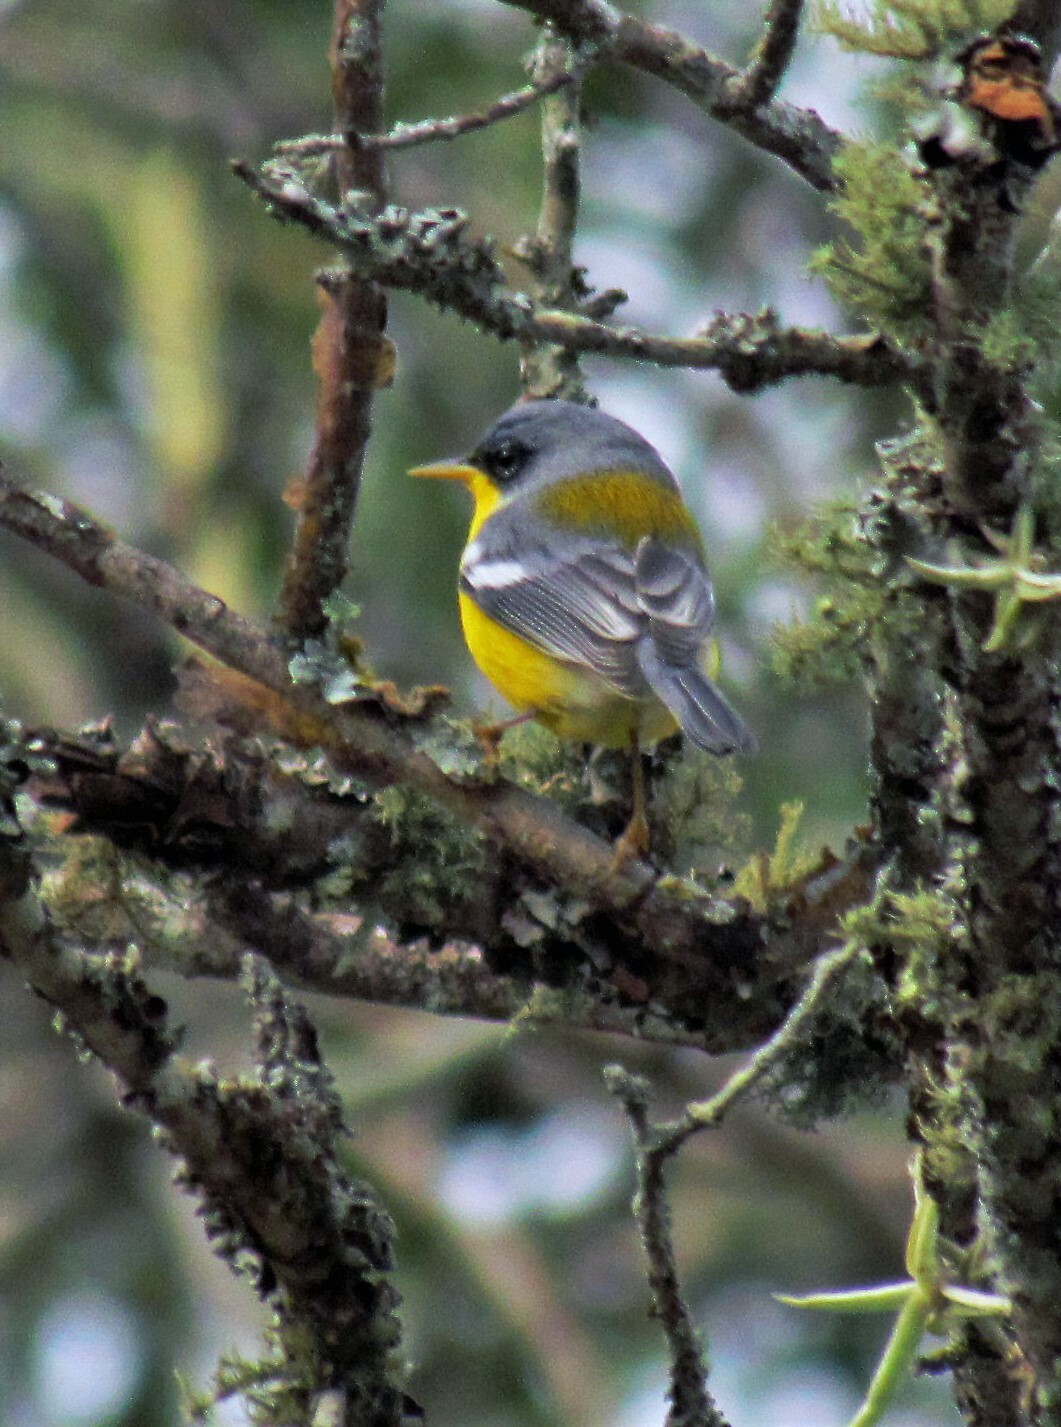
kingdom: Animalia
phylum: Chordata
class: Aves
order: Passeriformes
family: Parulidae
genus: Setophaga
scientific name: Setophaga pitiayumi
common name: Tropical parula
